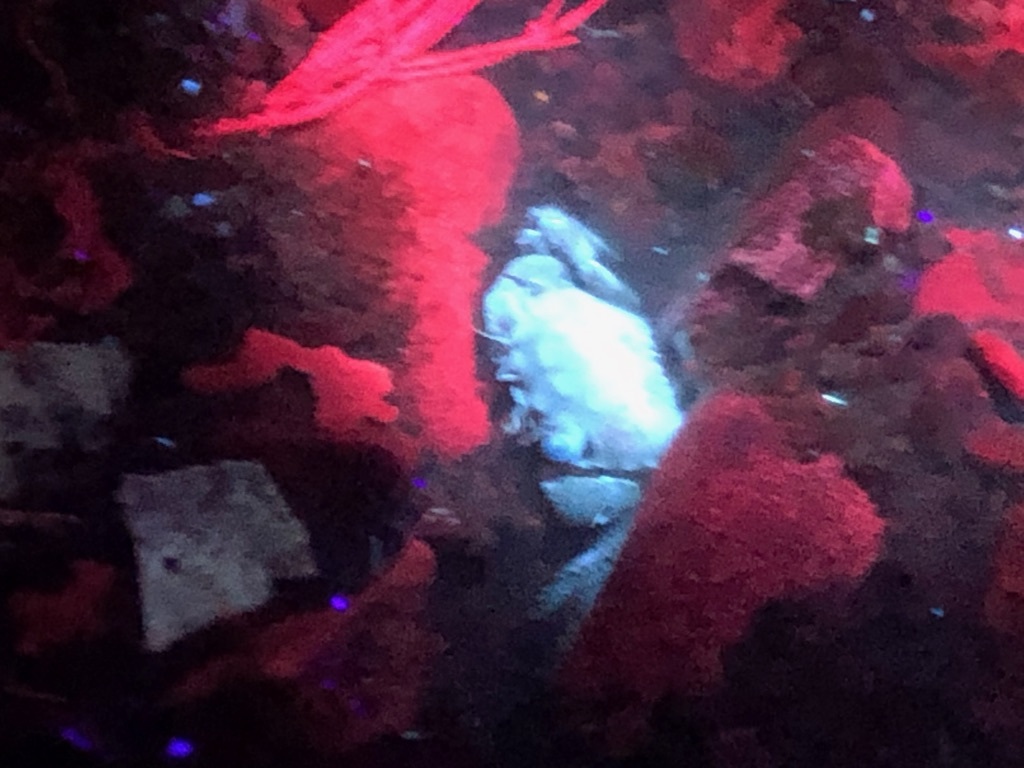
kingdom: Animalia
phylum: Arthropoda
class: Malacostraca
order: Decapoda
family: Varunidae
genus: Hemigrapsus
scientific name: Hemigrapsus oregonensis
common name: Yellow shore crab
